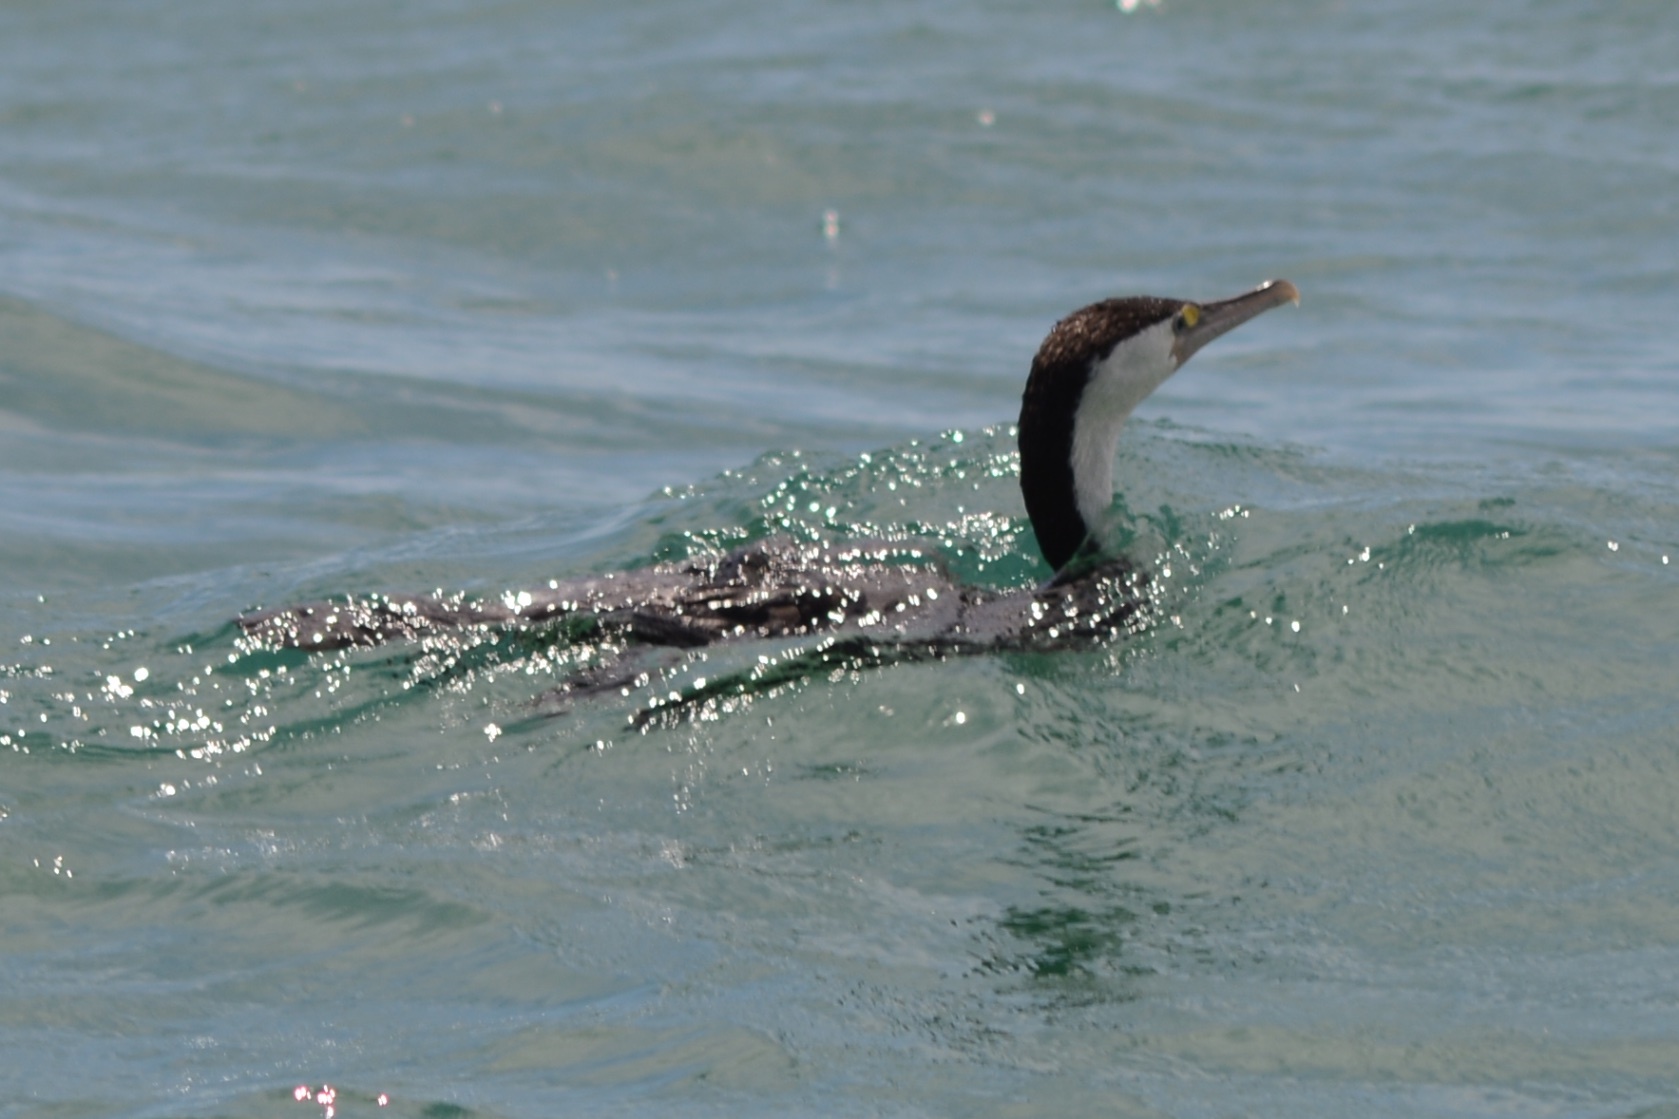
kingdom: Animalia
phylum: Chordata
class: Aves
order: Suliformes
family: Phalacrocoracidae
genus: Phalacrocorax
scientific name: Phalacrocorax varius
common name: Pied cormorant
